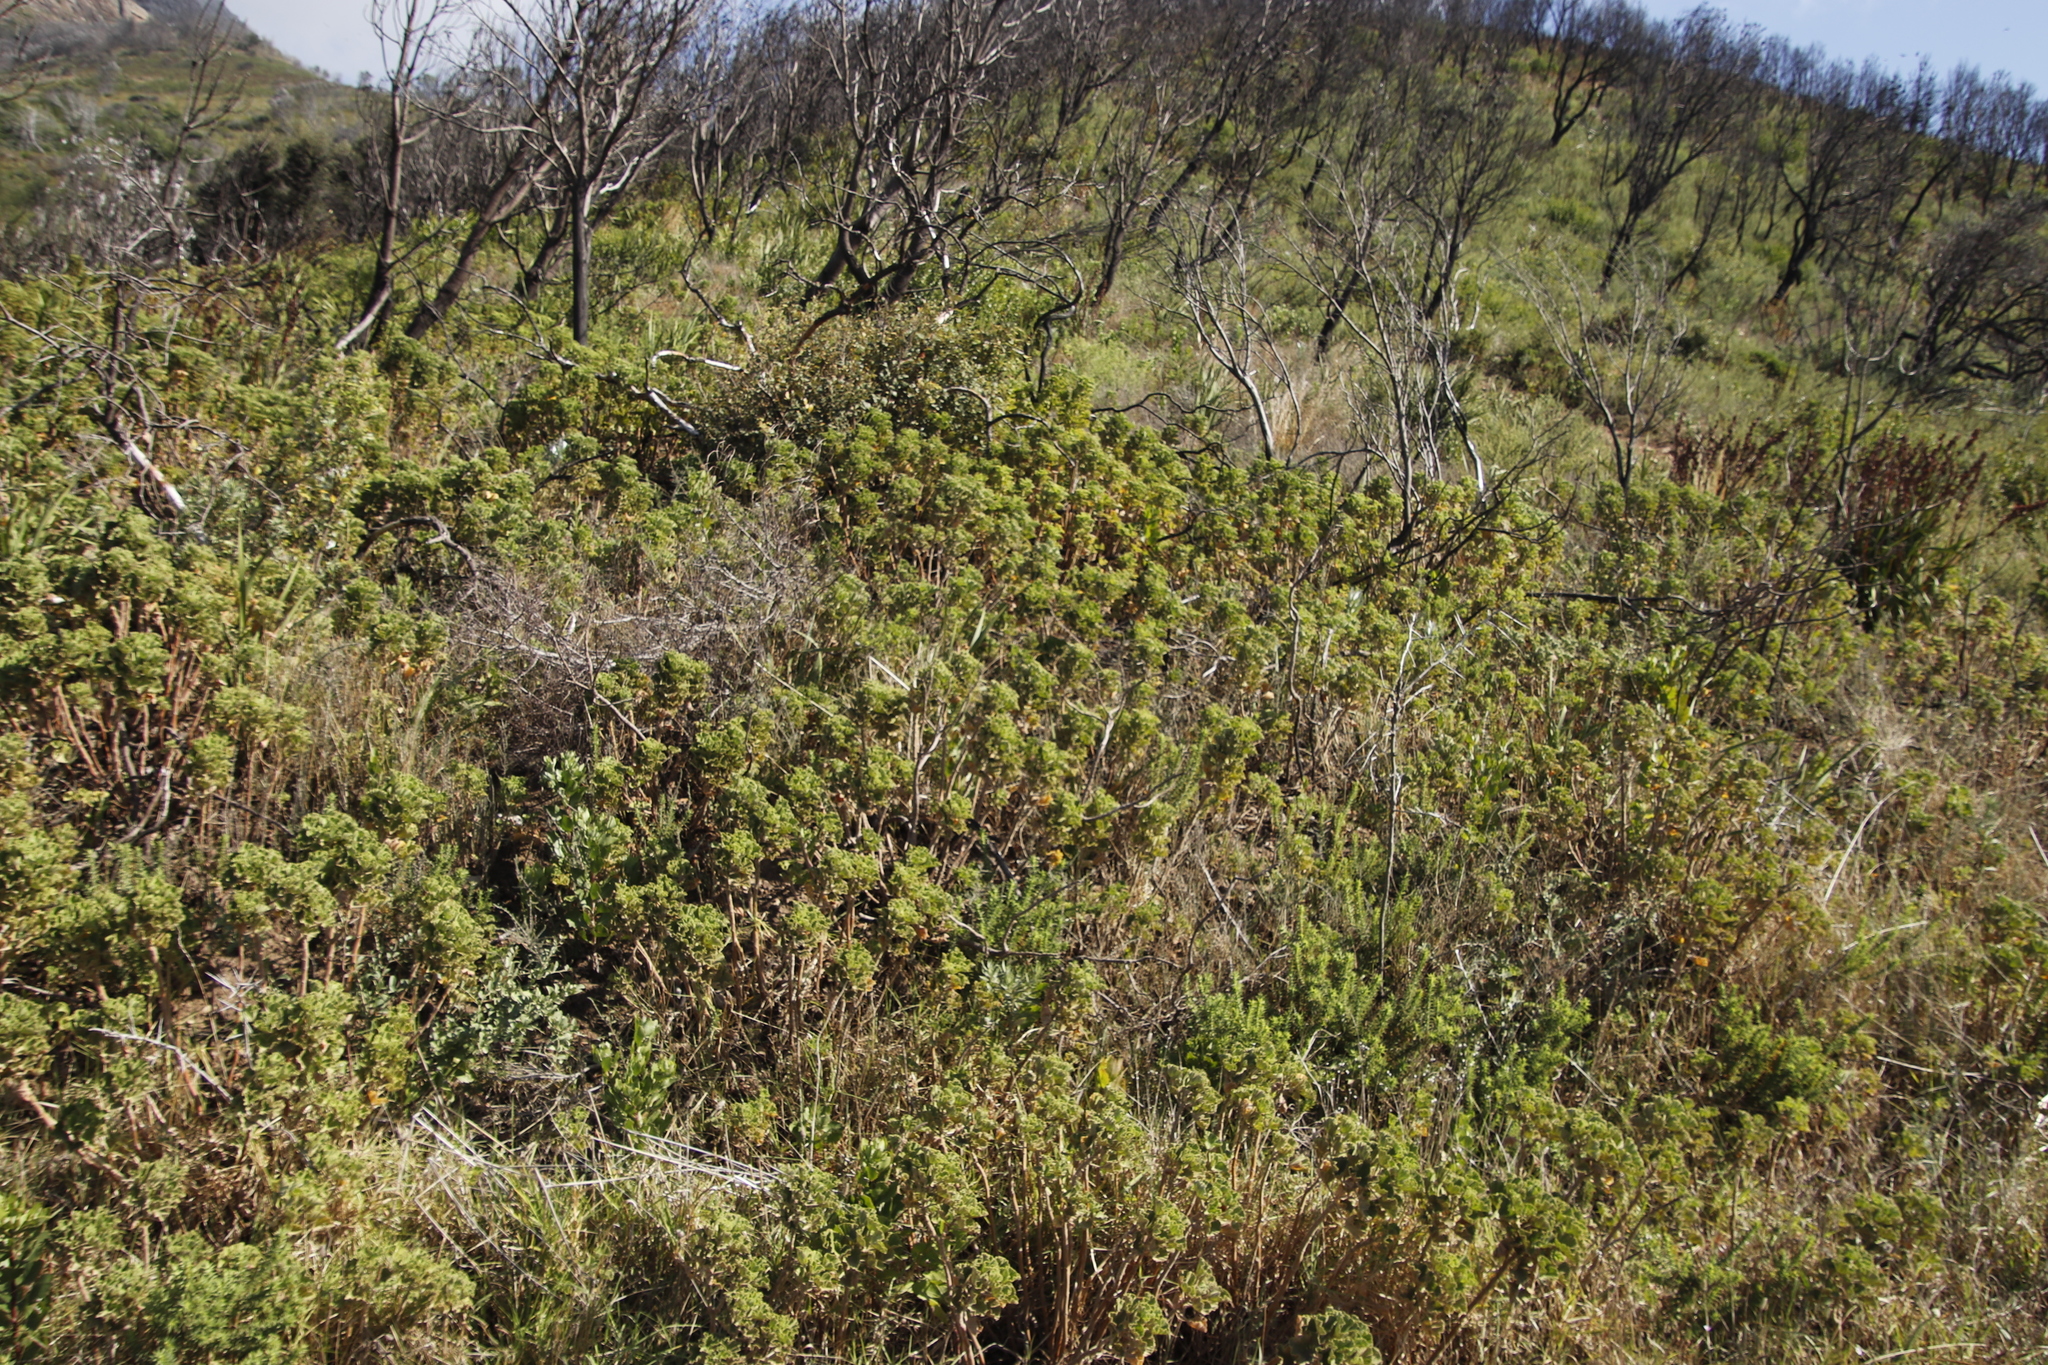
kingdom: Plantae
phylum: Tracheophyta
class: Magnoliopsida
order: Geraniales
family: Geraniaceae
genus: Pelargonium
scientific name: Pelargonium cucullatum
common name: Tree pelargonium
